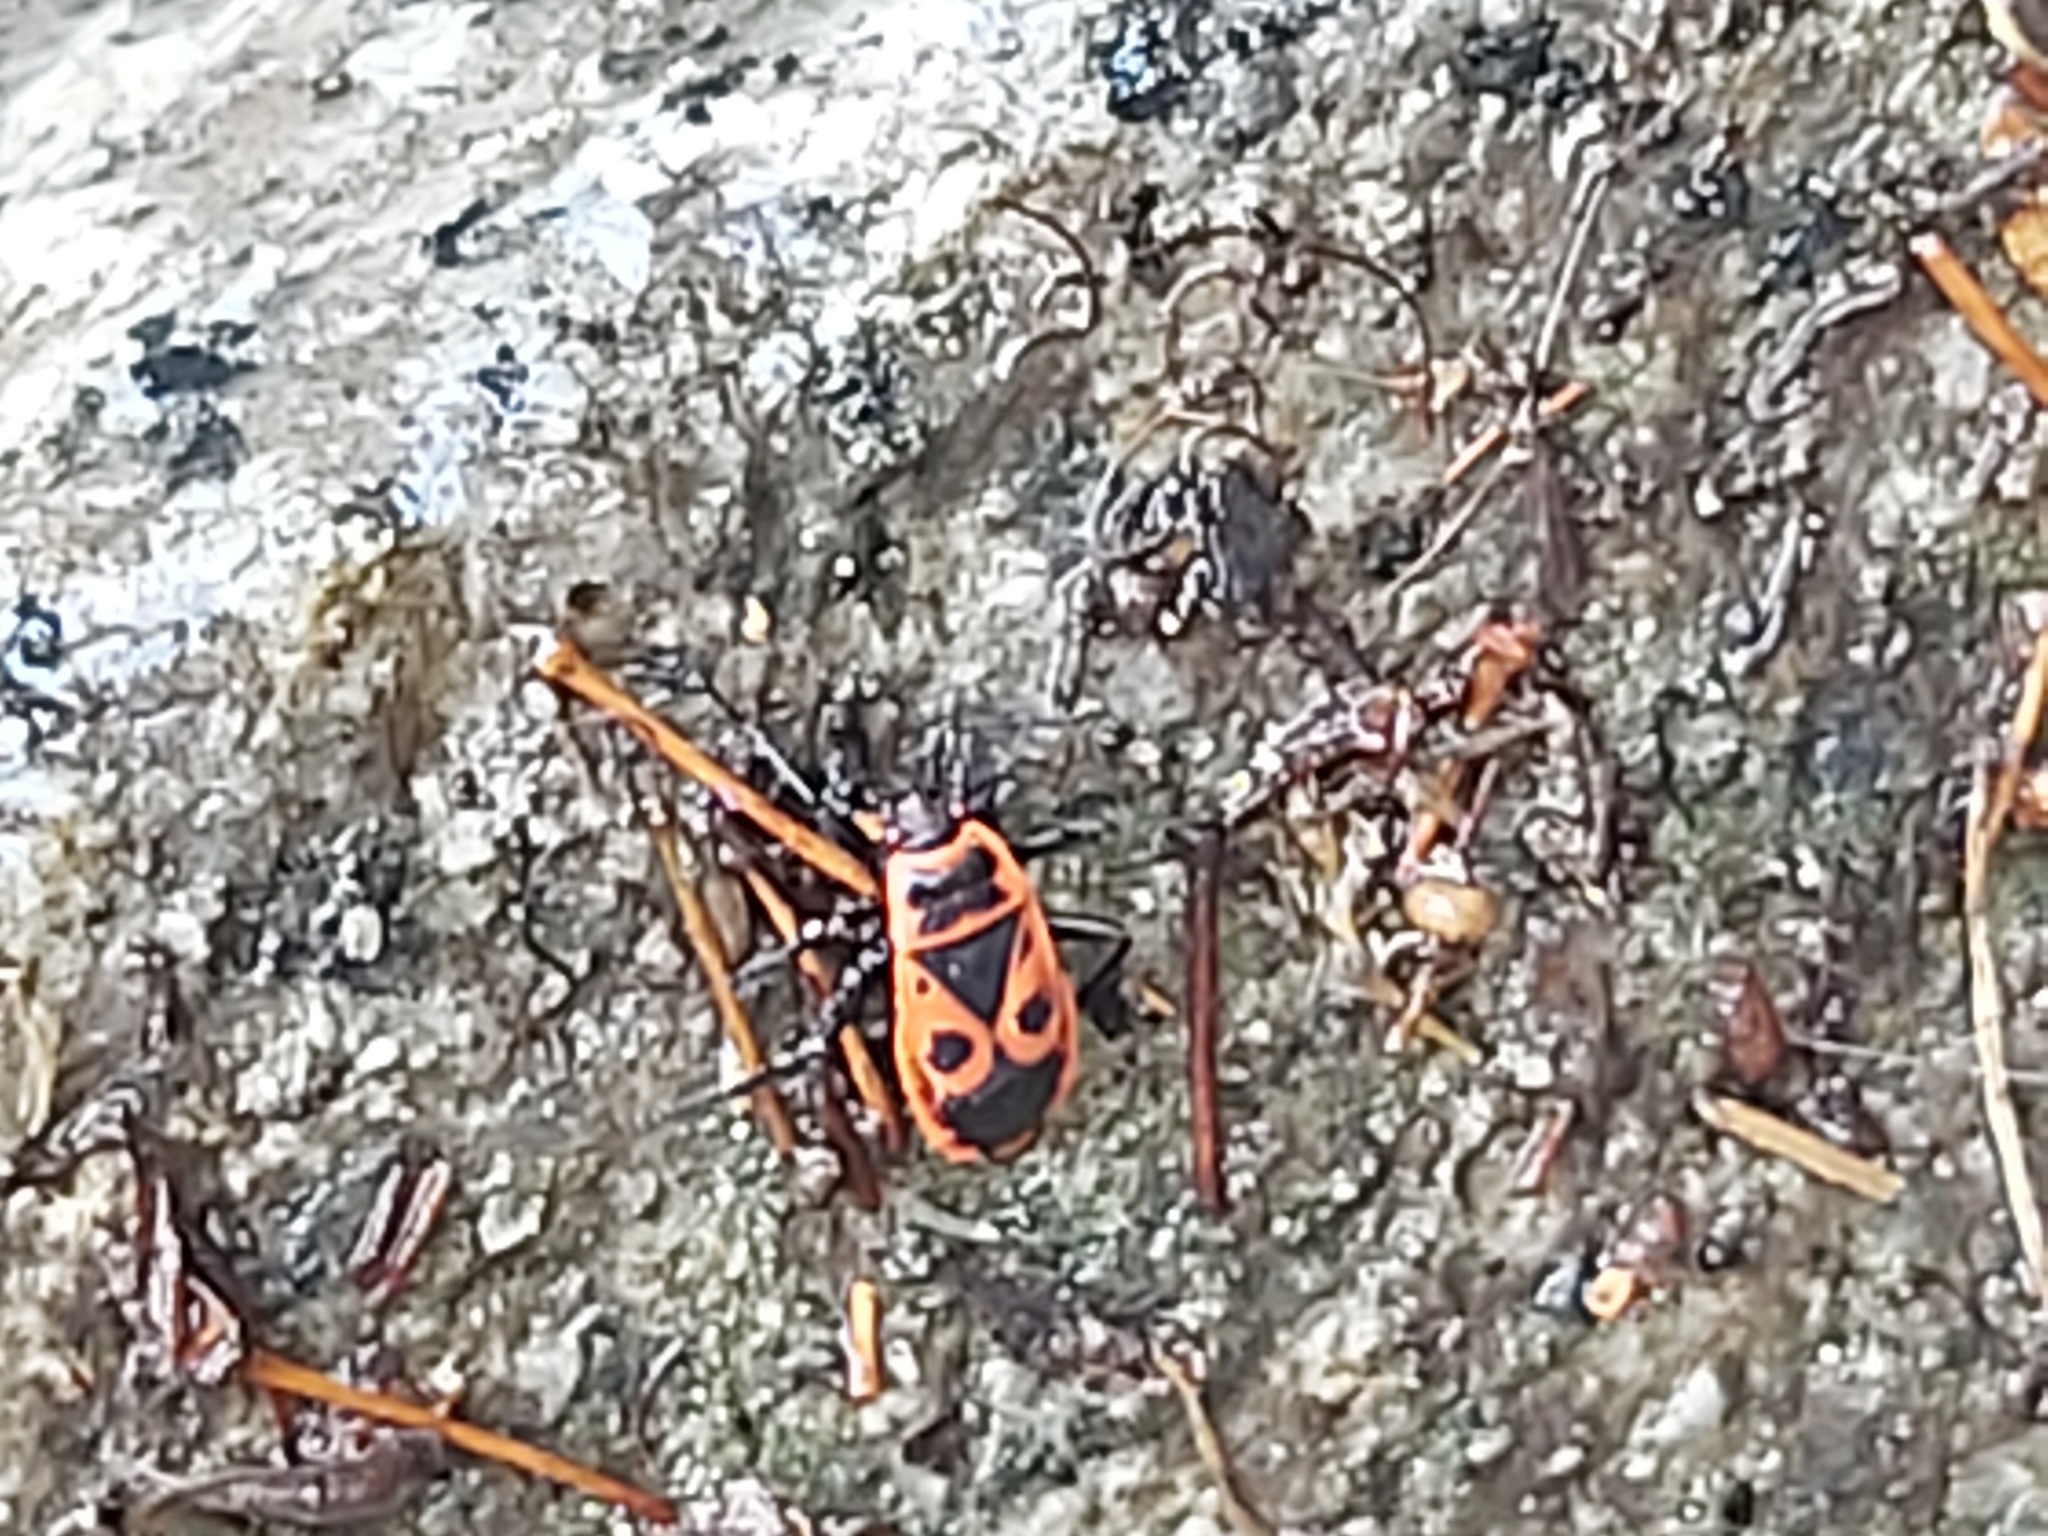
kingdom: Animalia
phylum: Arthropoda
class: Insecta
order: Hemiptera
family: Pyrrhocoridae
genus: Pyrrhocoris
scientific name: Pyrrhocoris apterus
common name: Firebug
